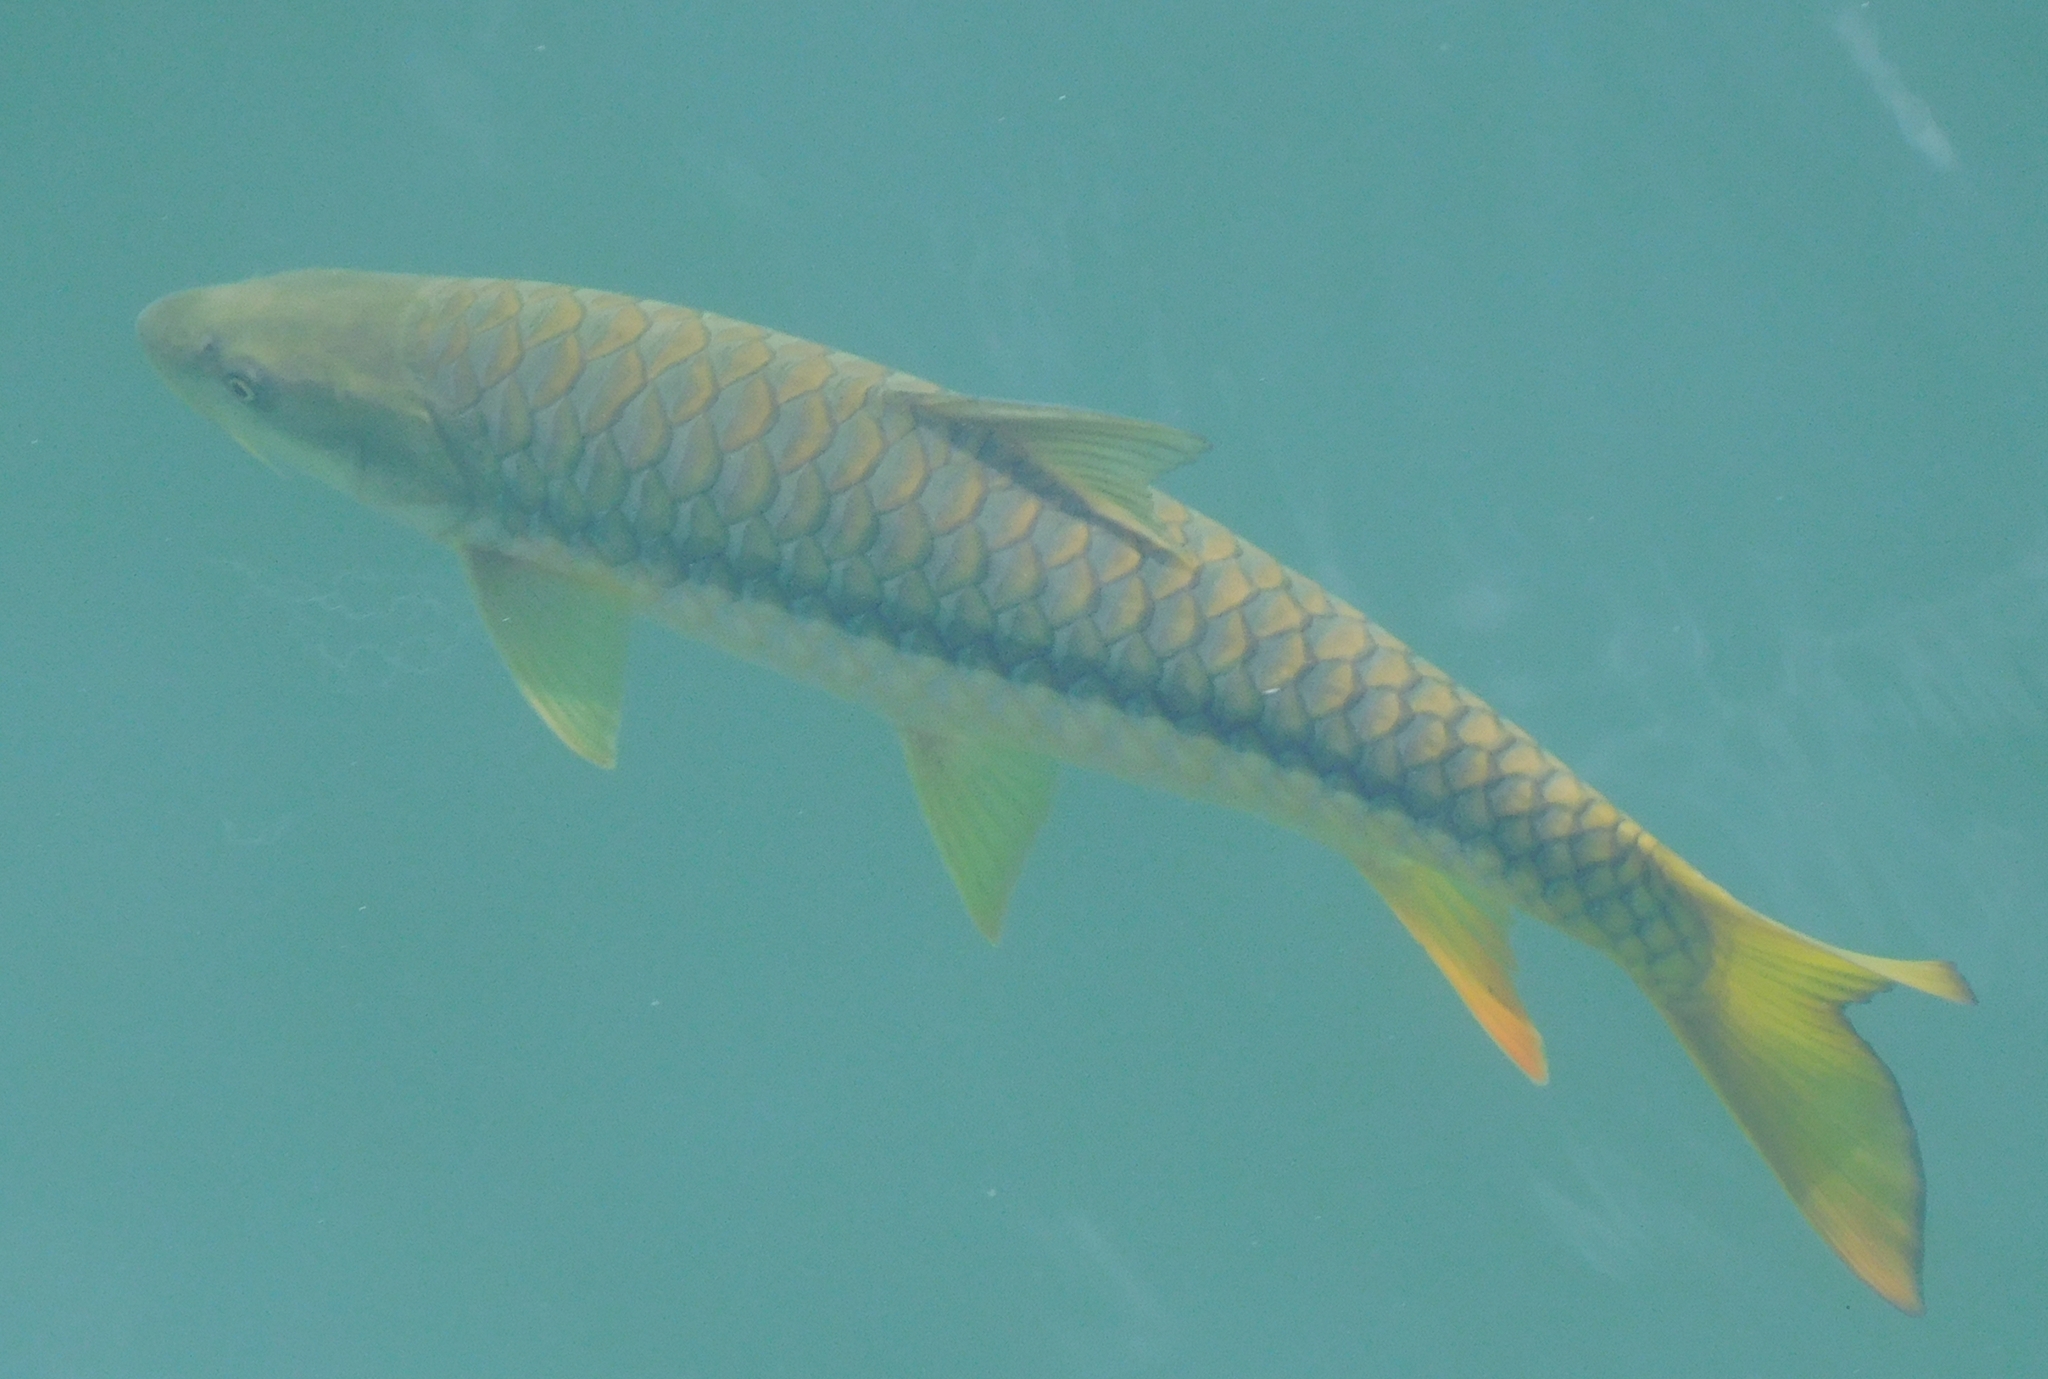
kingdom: Animalia
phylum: Chordata
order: Cypriniformes
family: Cyprinidae
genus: Tor
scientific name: Tor putitora
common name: Putitor mahseer
